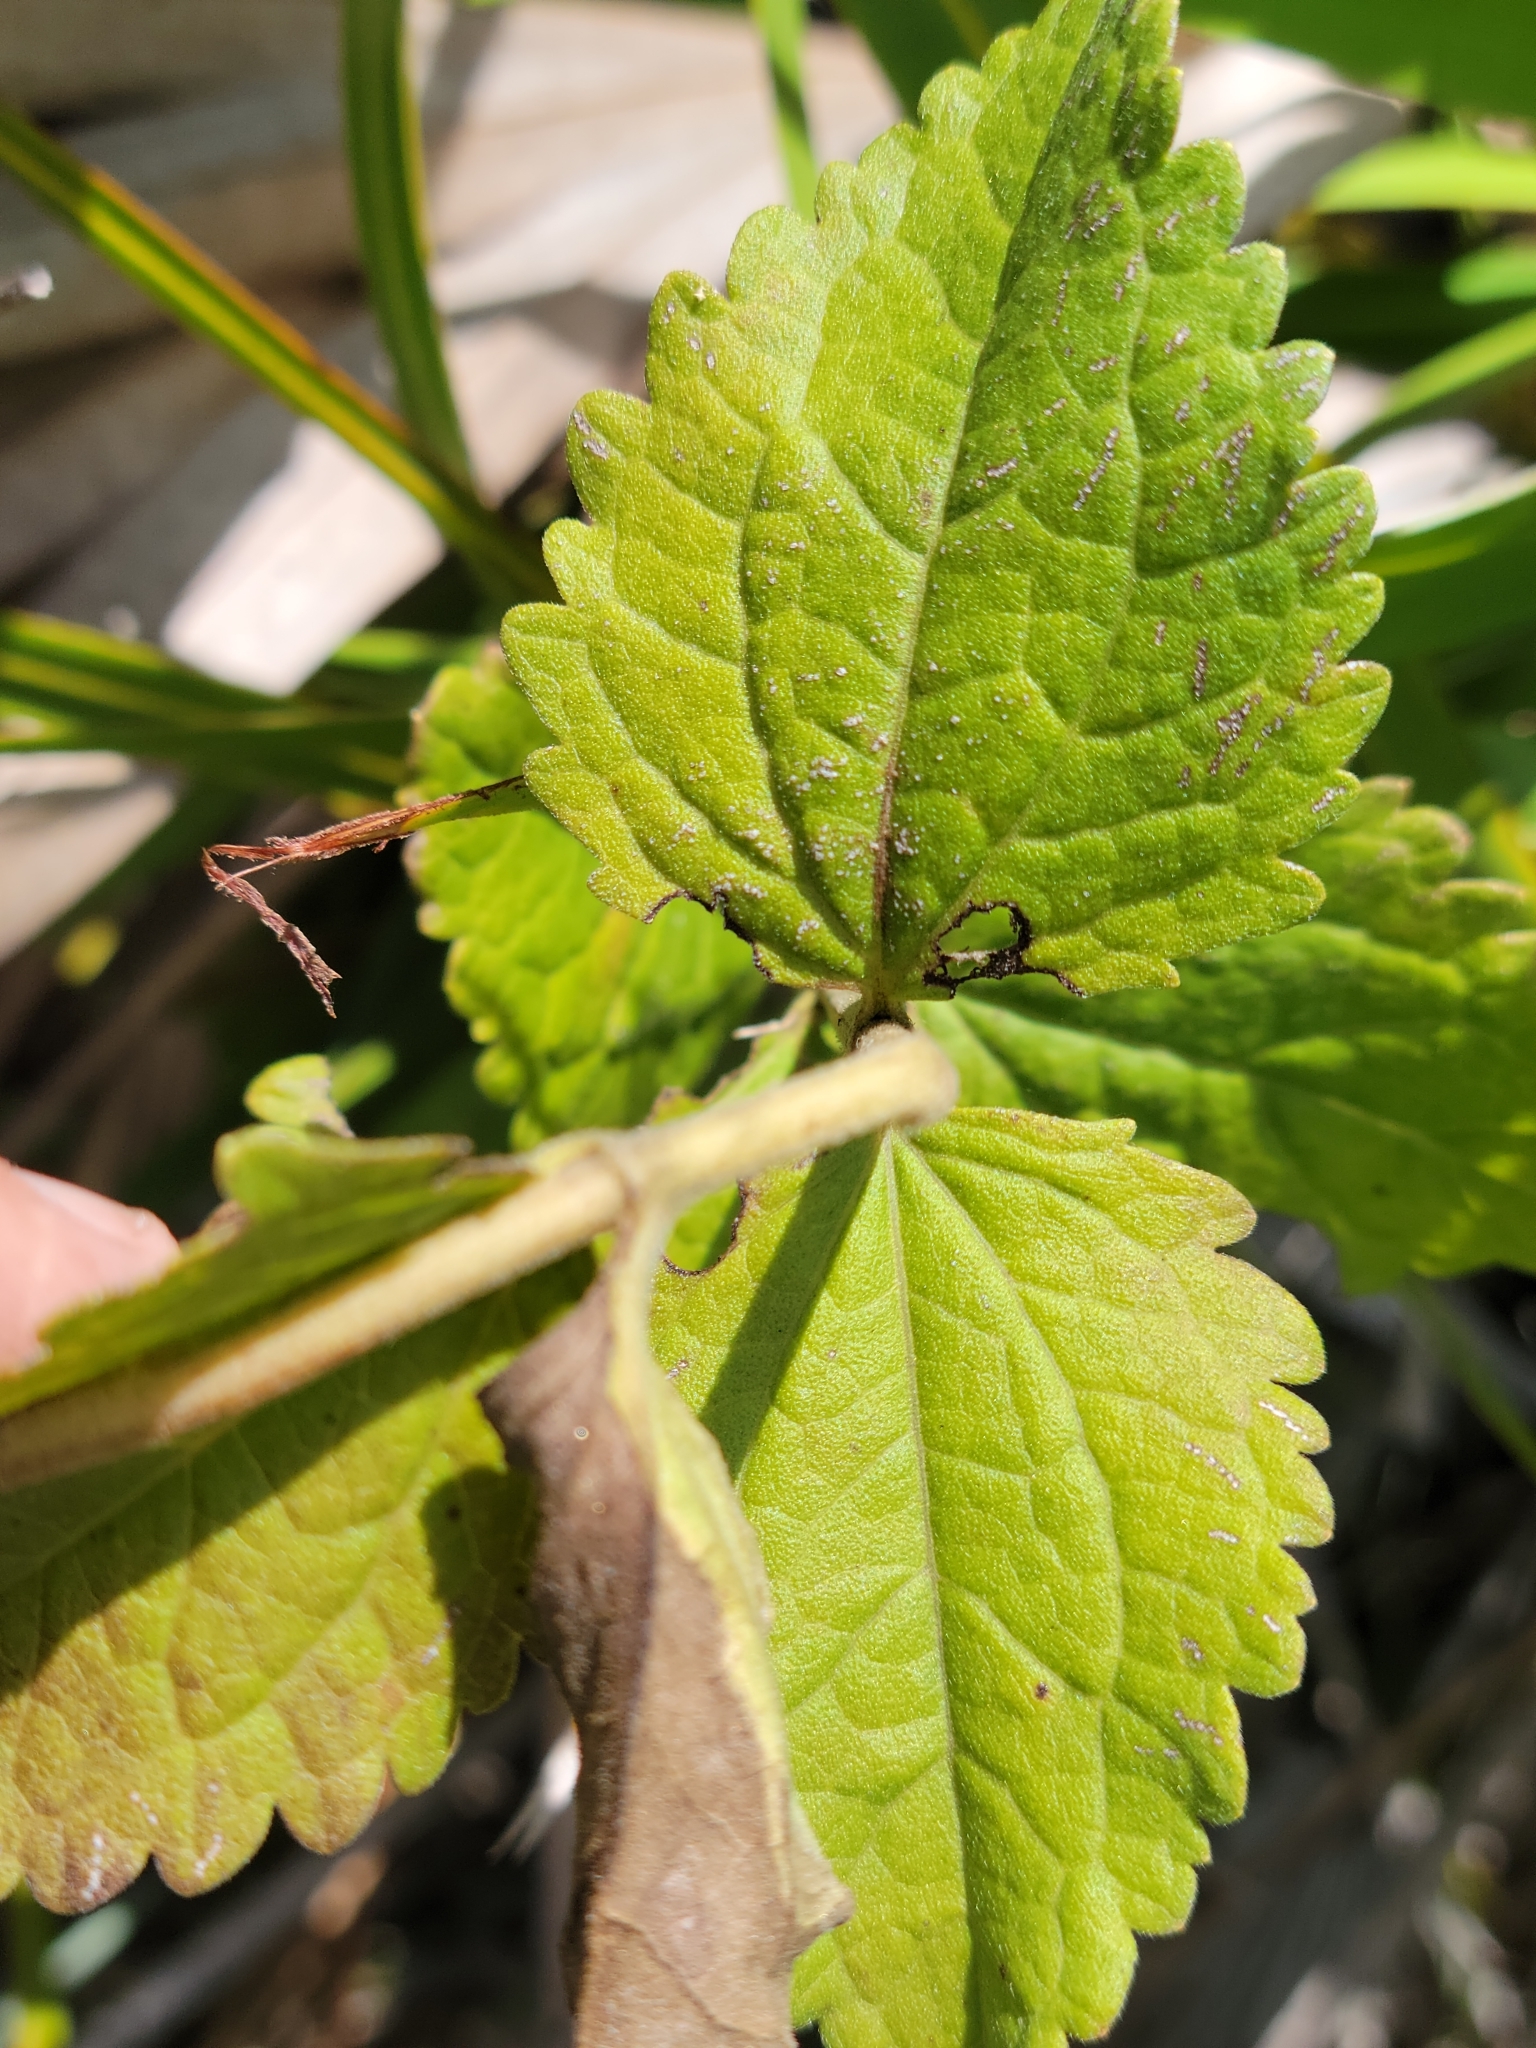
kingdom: Plantae
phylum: Tracheophyta
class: Magnoliopsida
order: Asterales
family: Asteraceae
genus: Eupatorium
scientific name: Eupatorium rotundifolium
